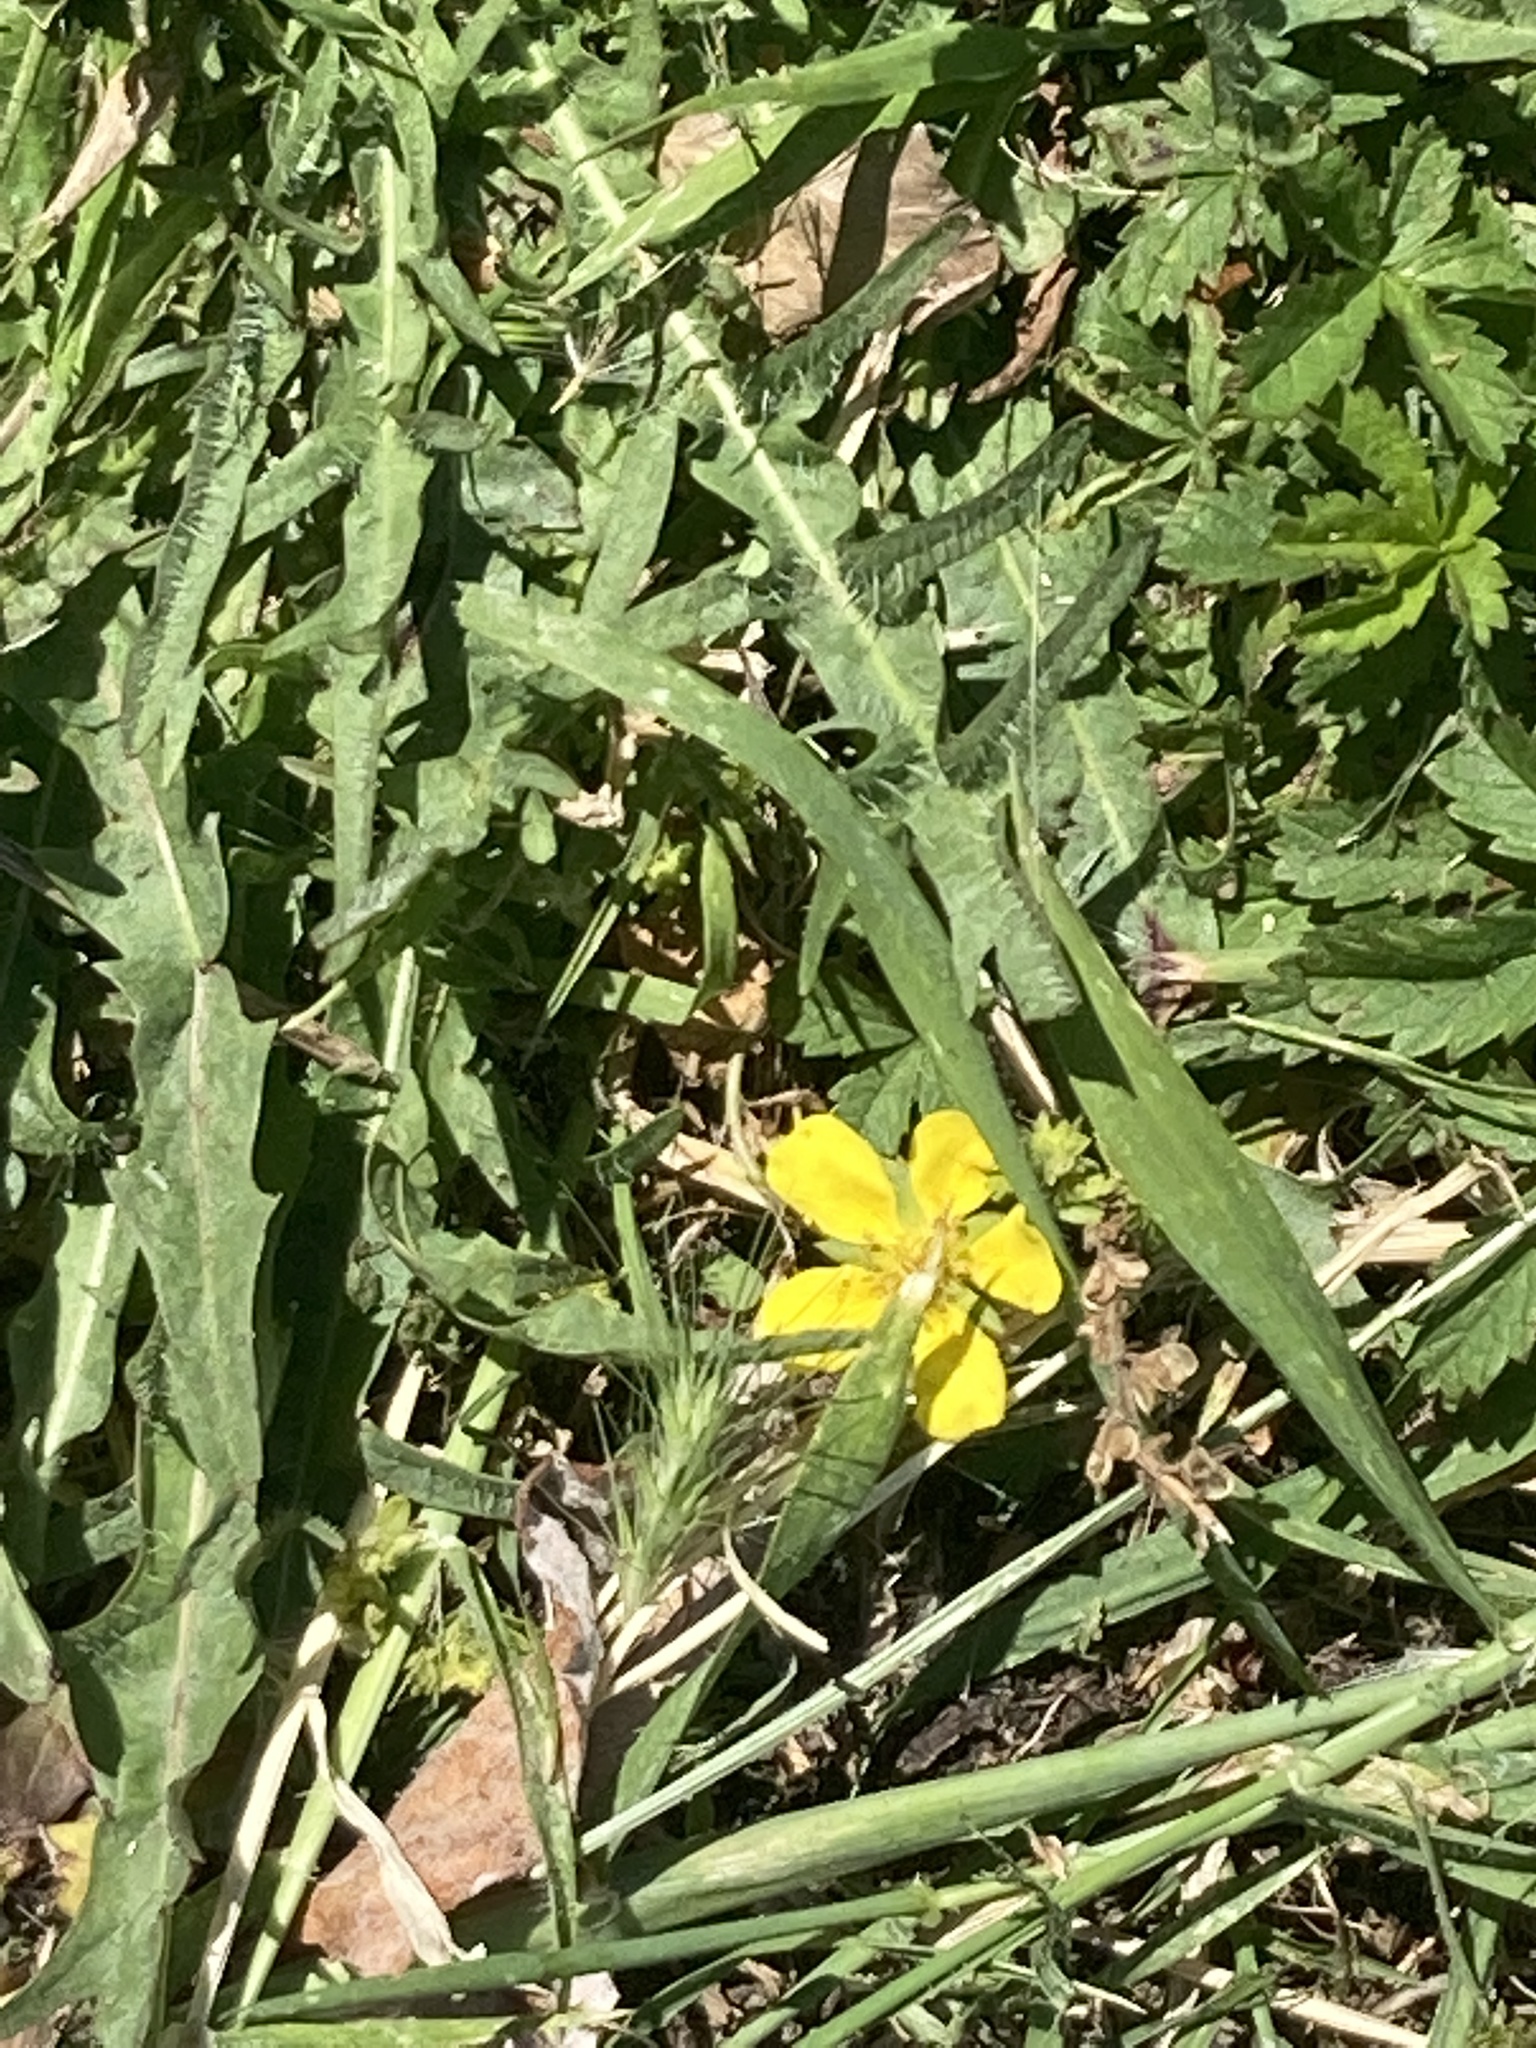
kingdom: Plantae
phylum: Tracheophyta
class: Magnoliopsida
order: Rosales
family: Rosaceae
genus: Potentilla
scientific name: Potentilla reptans
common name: Creeping cinquefoil
